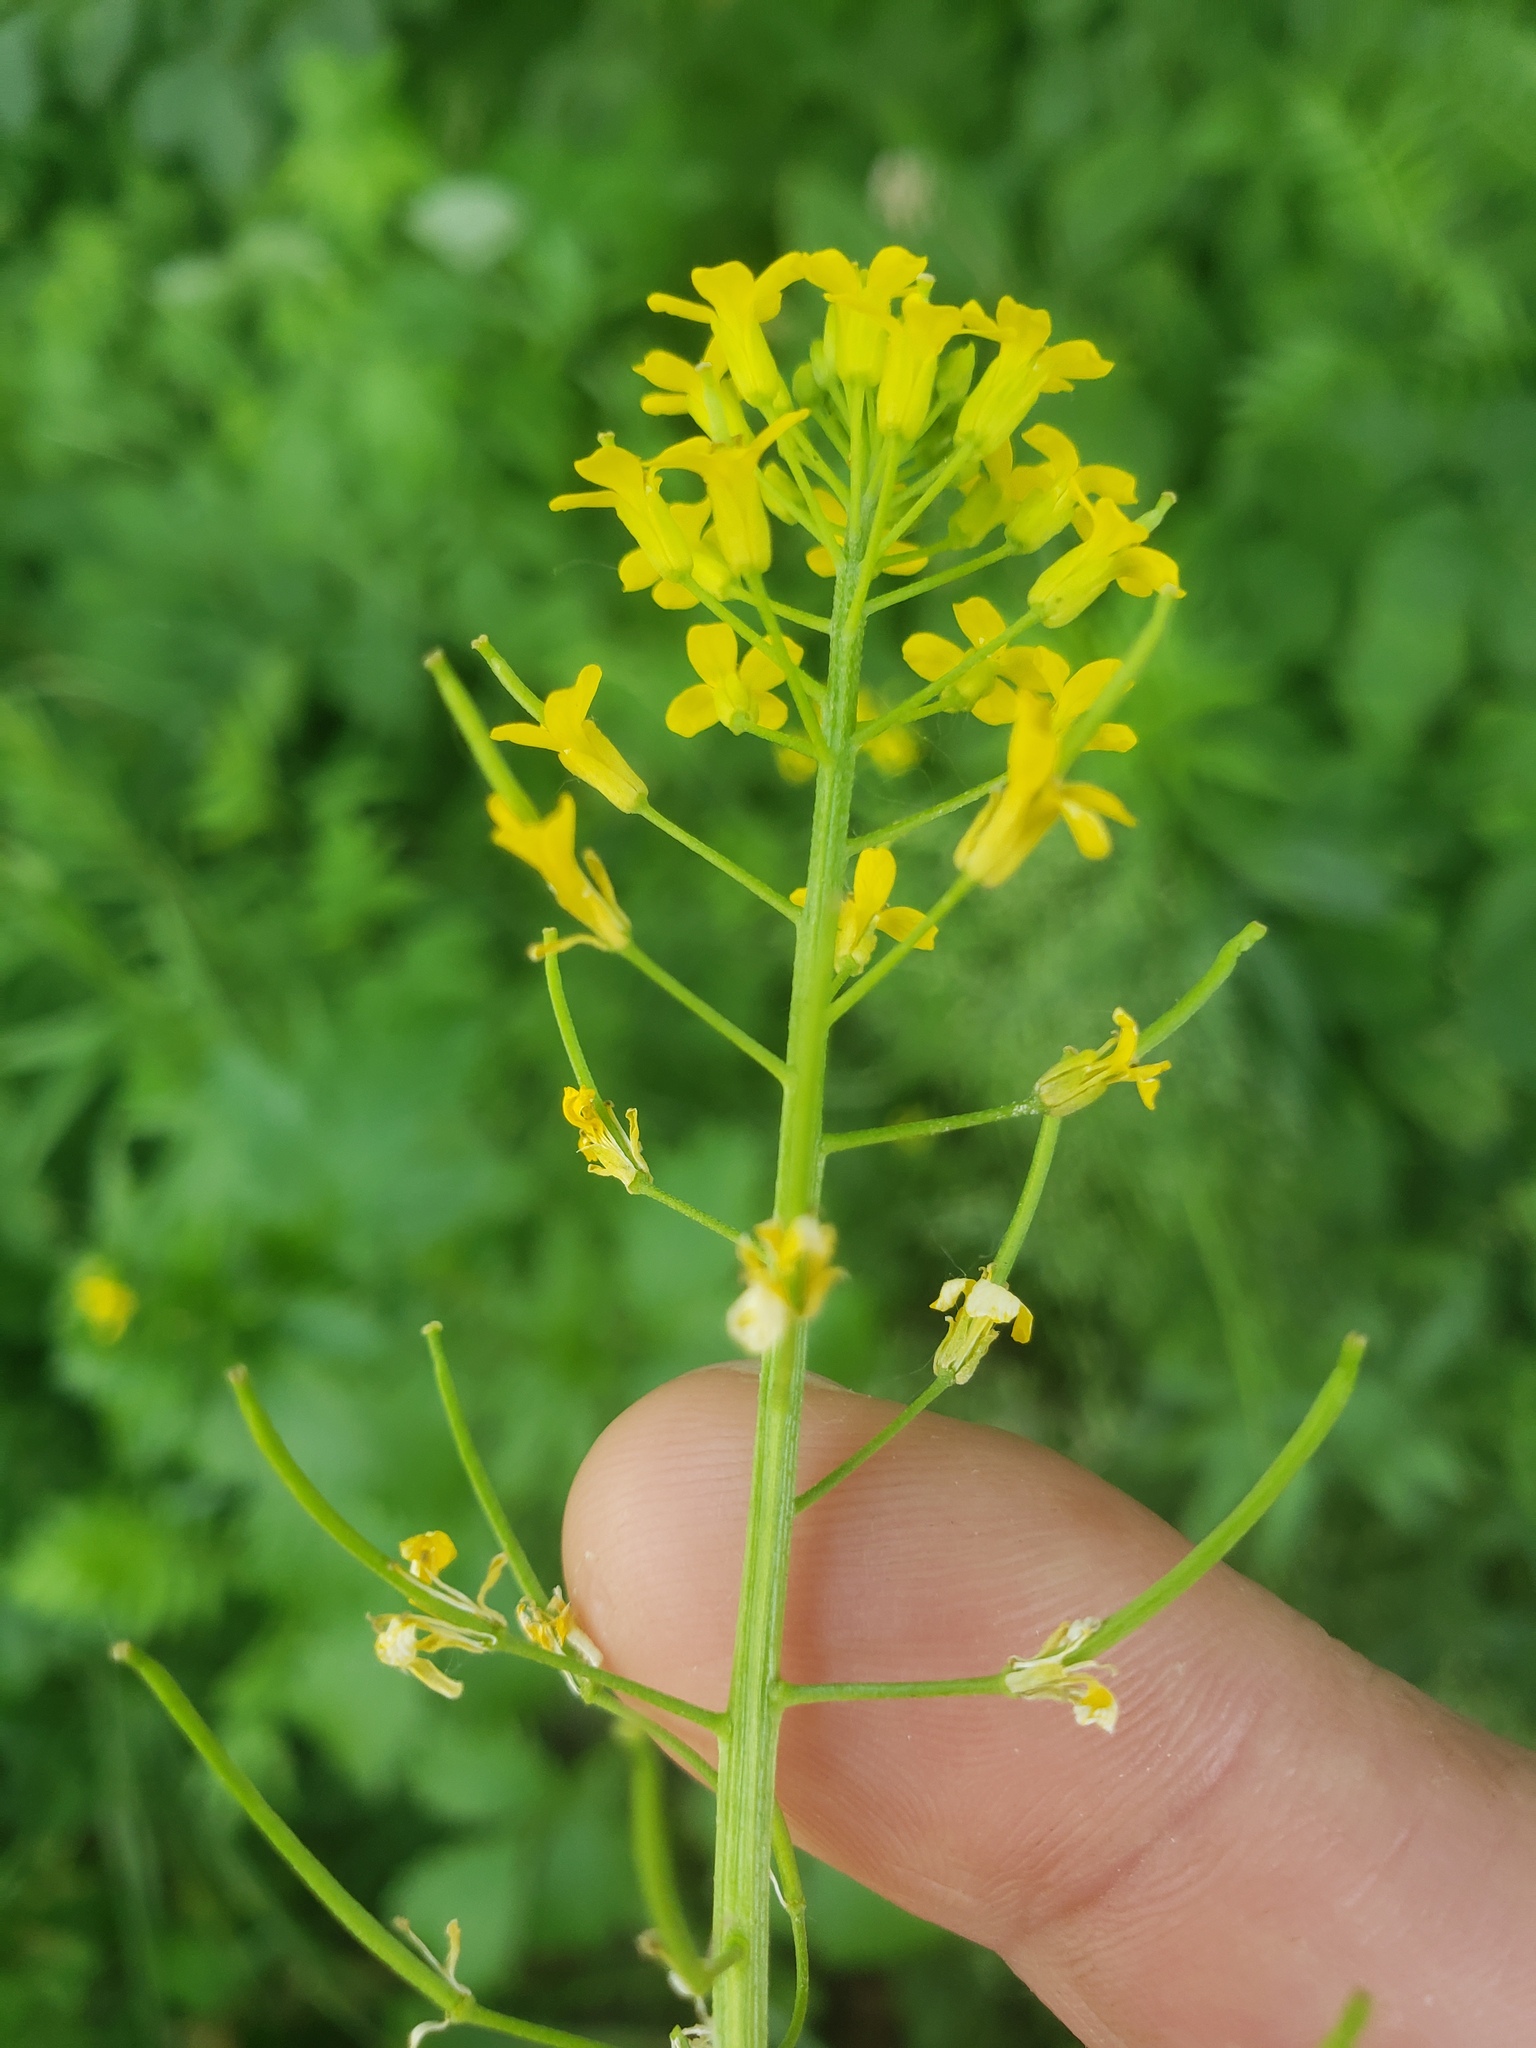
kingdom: Plantae
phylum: Tracheophyta
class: Magnoliopsida
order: Brassicales
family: Brassicaceae
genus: Erysimum
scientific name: Erysimum cheiranthoides
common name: Treacle mustard
